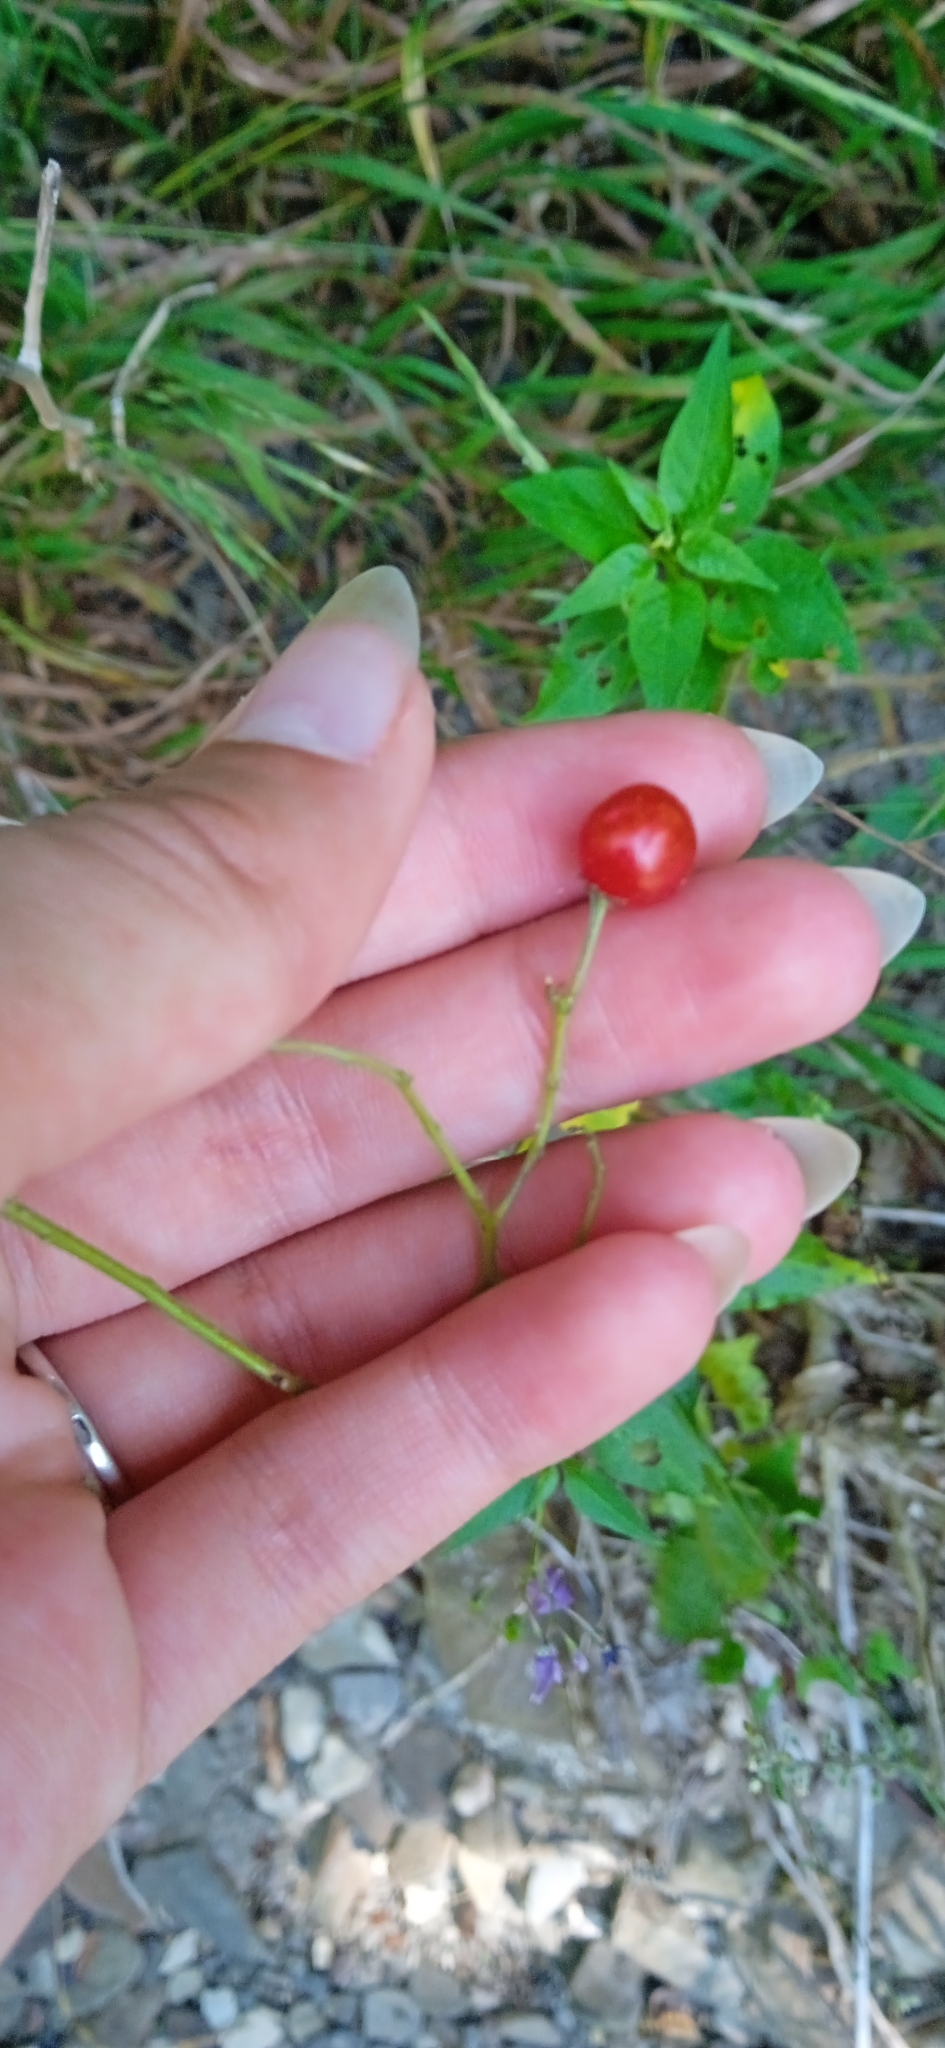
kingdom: Plantae
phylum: Tracheophyta
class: Magnoliopsida
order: Solanales
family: Solanaceae
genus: Solanum
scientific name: Solanum dulcamara
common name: Climbing nightshade
